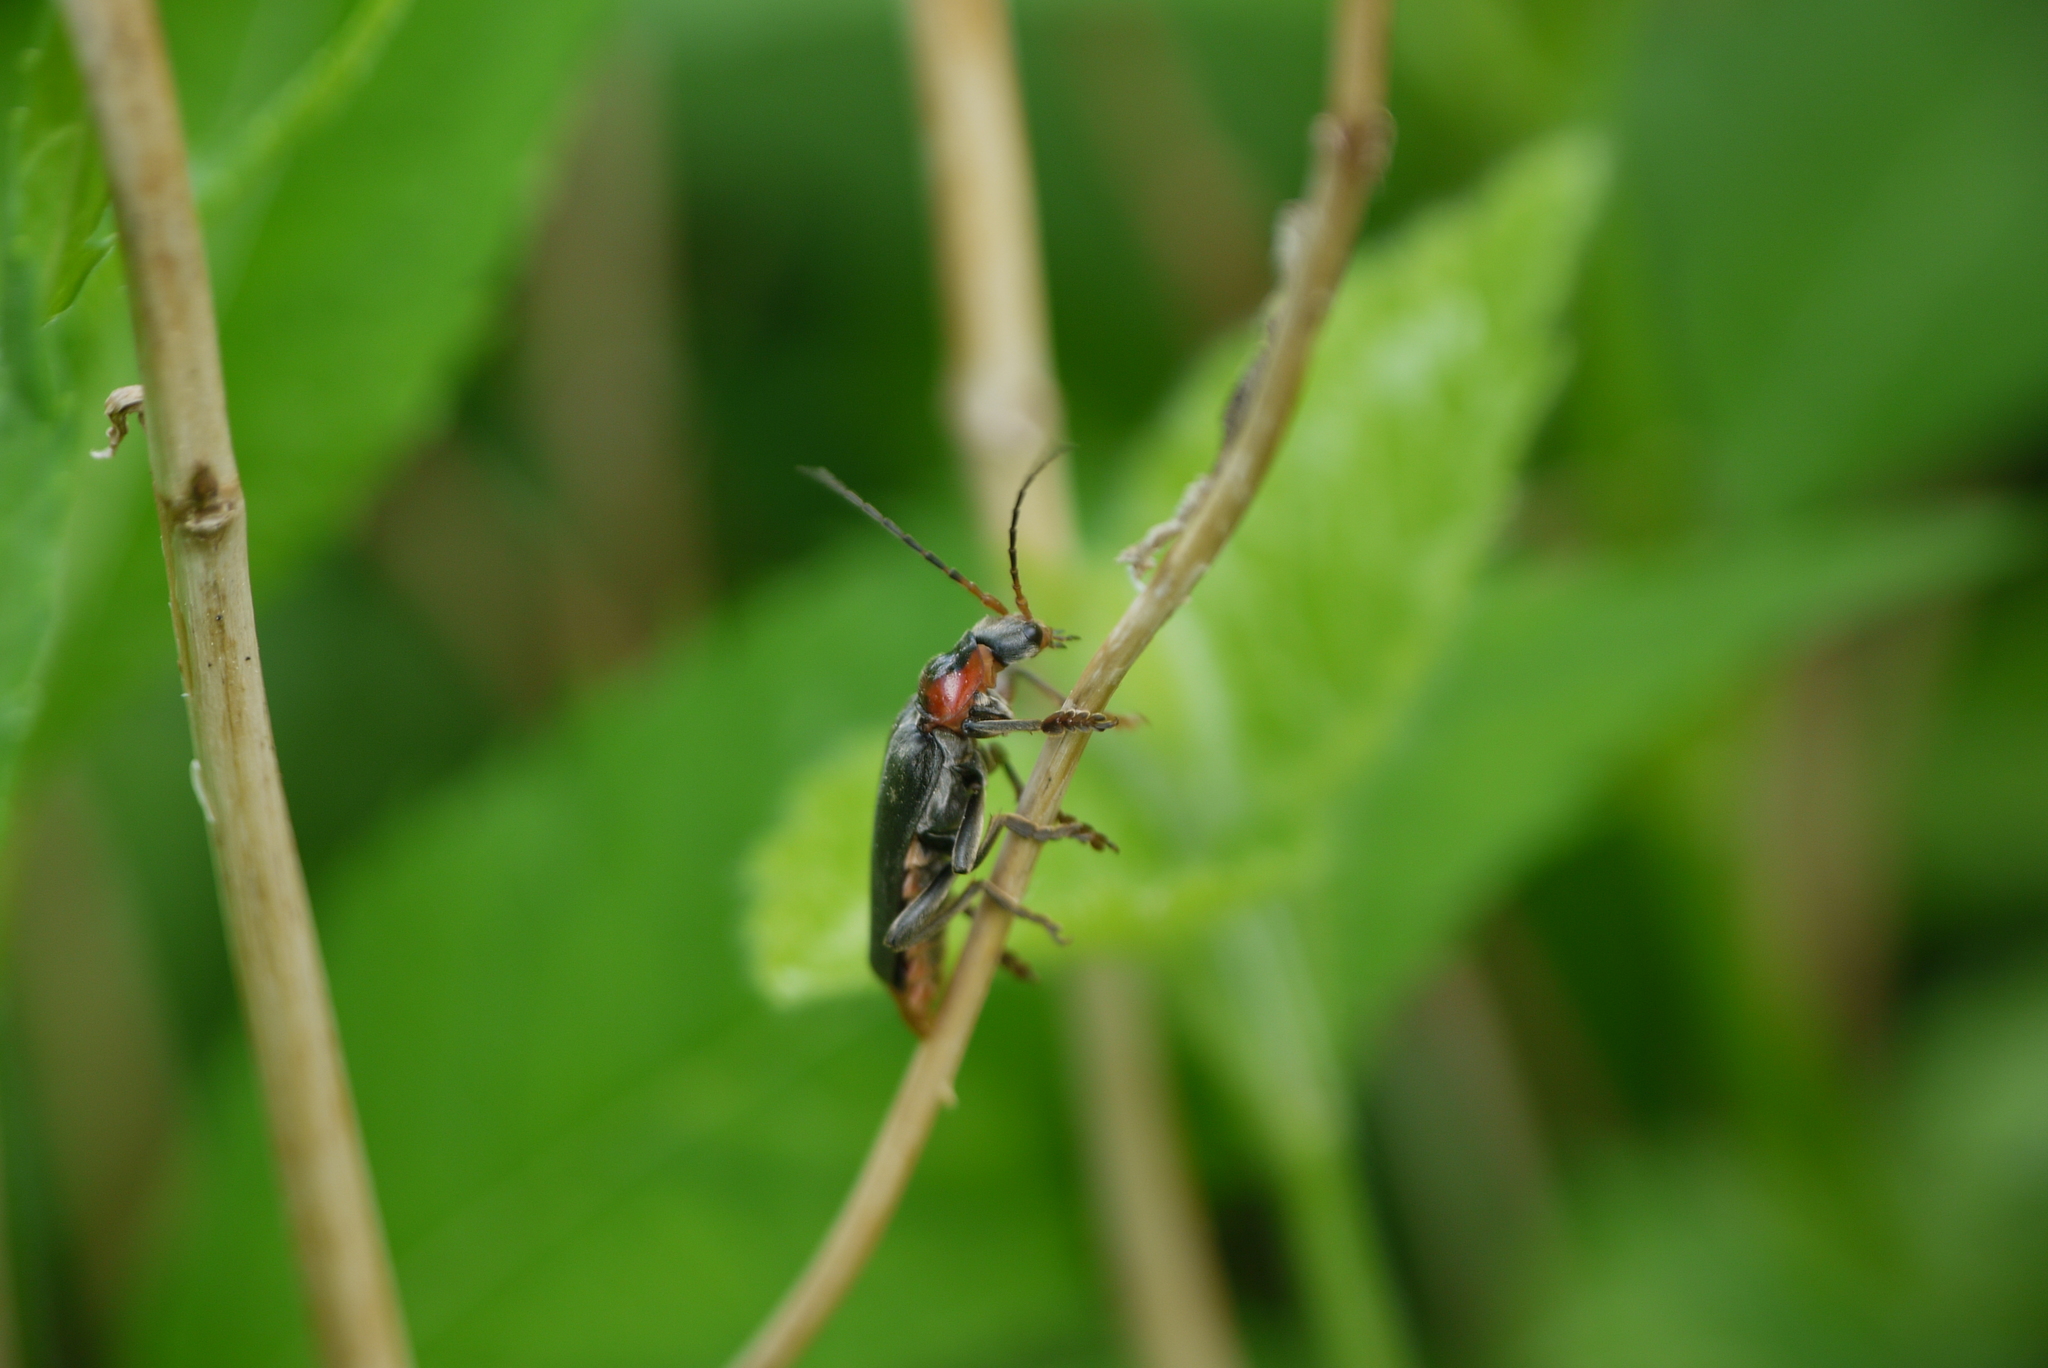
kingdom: Animalia
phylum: Arthropoda
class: Insecta
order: Coleoptera
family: Cantharidae
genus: Cantharis
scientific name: Cantharis fusca
